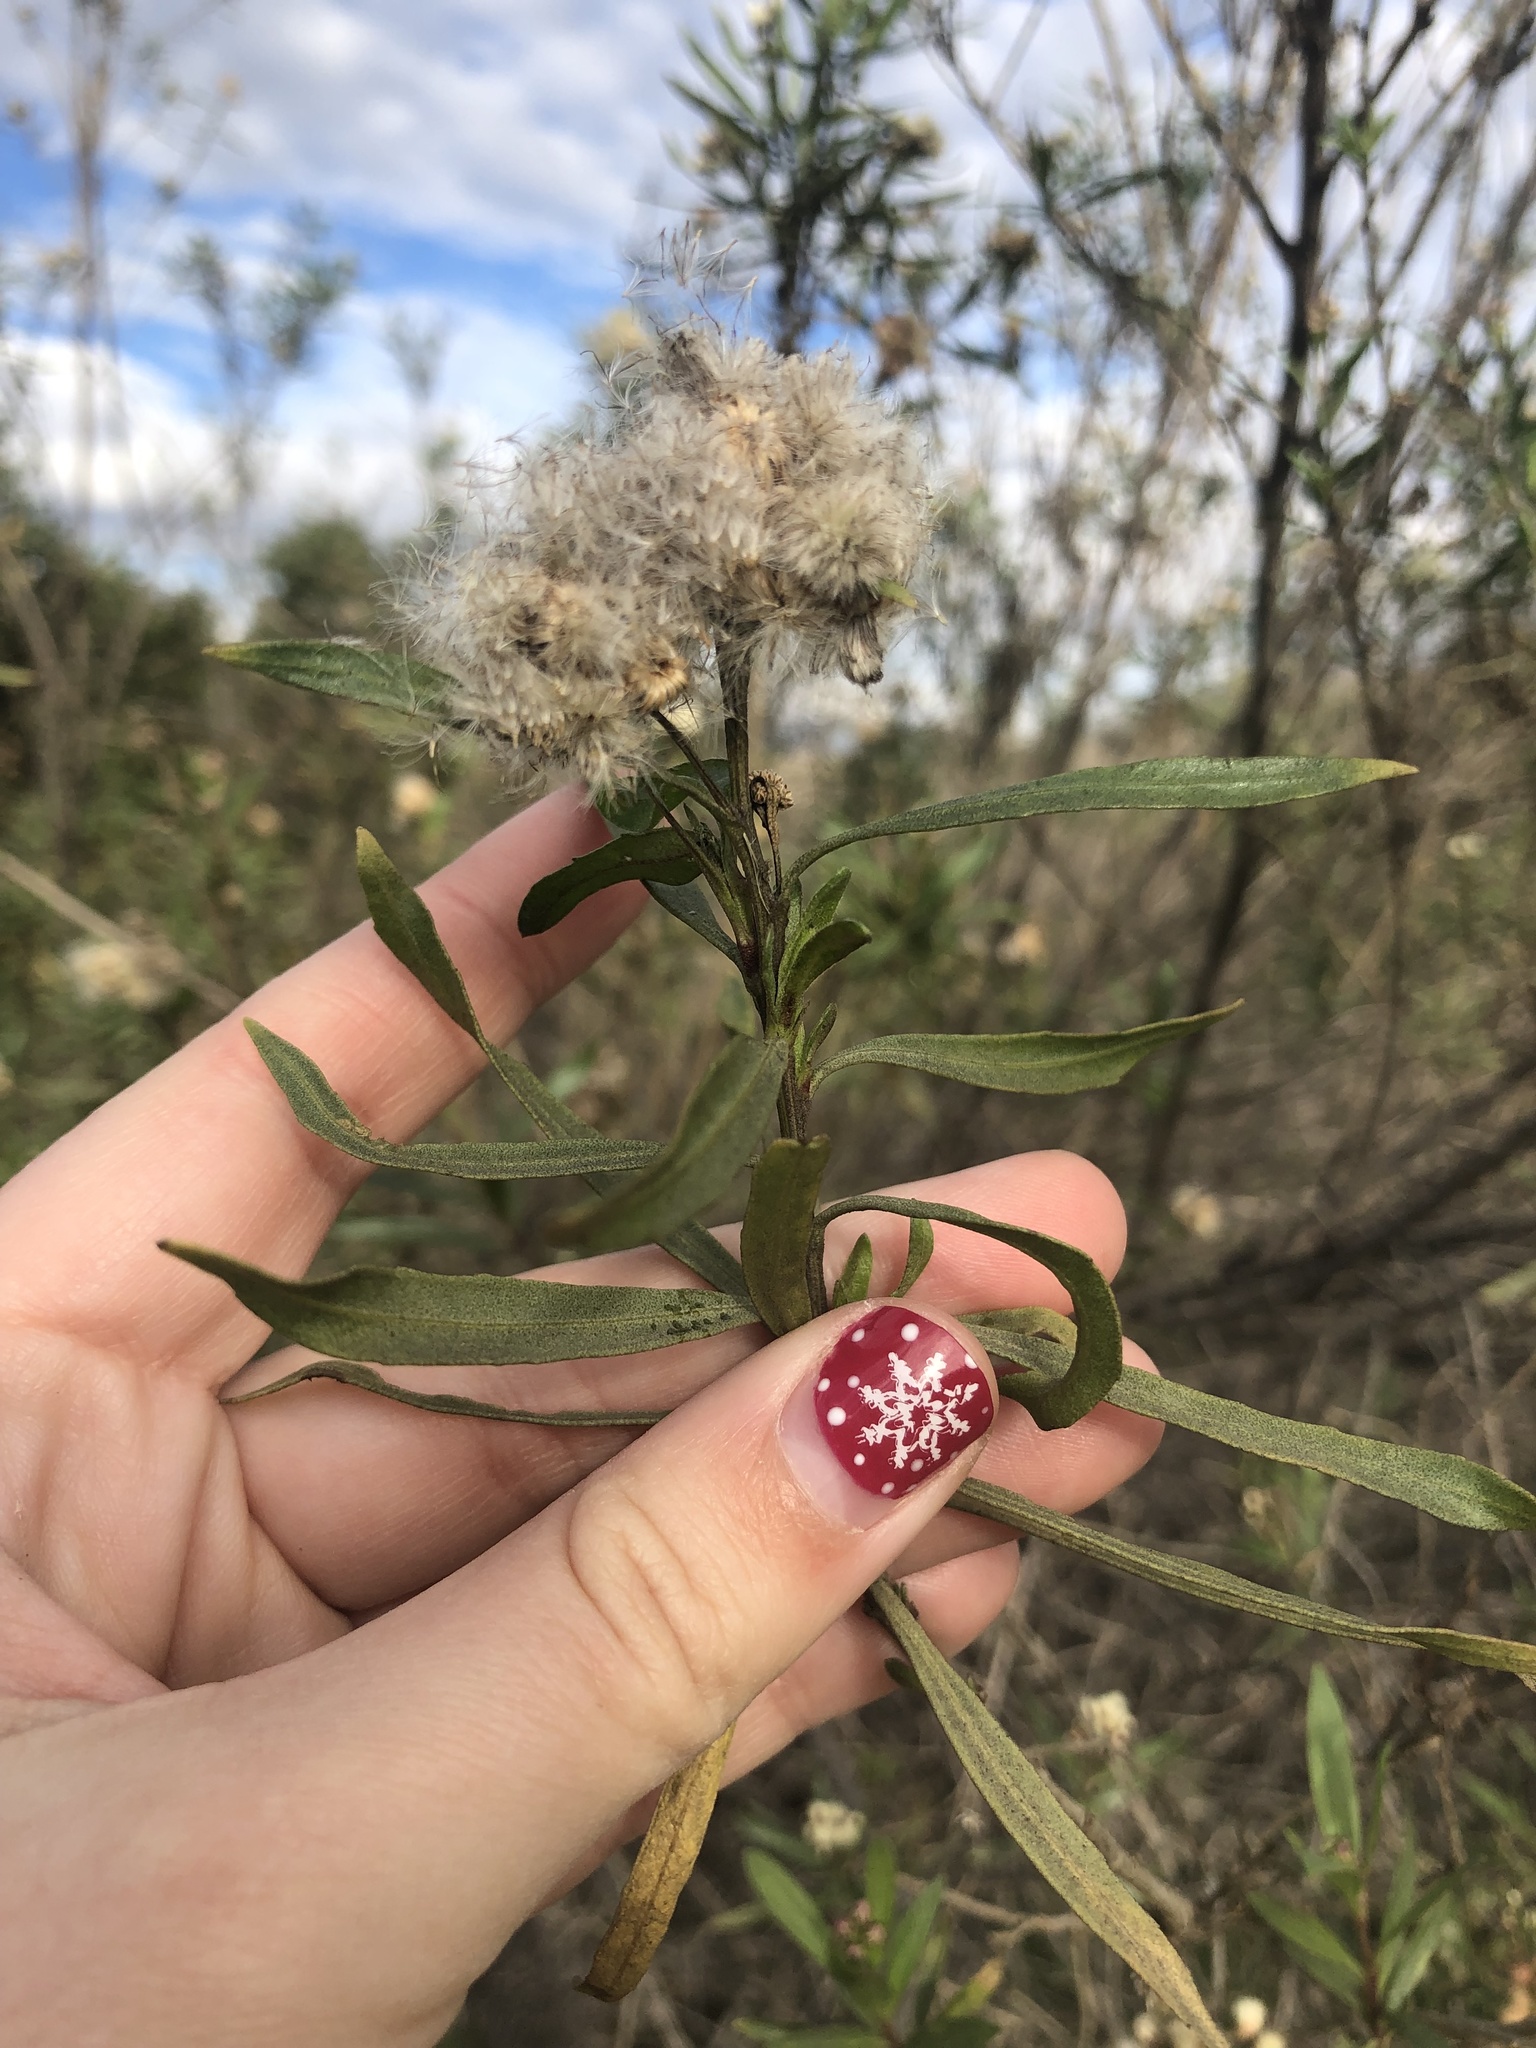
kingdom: Plantae
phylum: Tracheophyta
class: Magnoliopsida
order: Asterales
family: Asteraceae
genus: Baccharis
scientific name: Baccharis salicifolia
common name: Sticky baccharis
